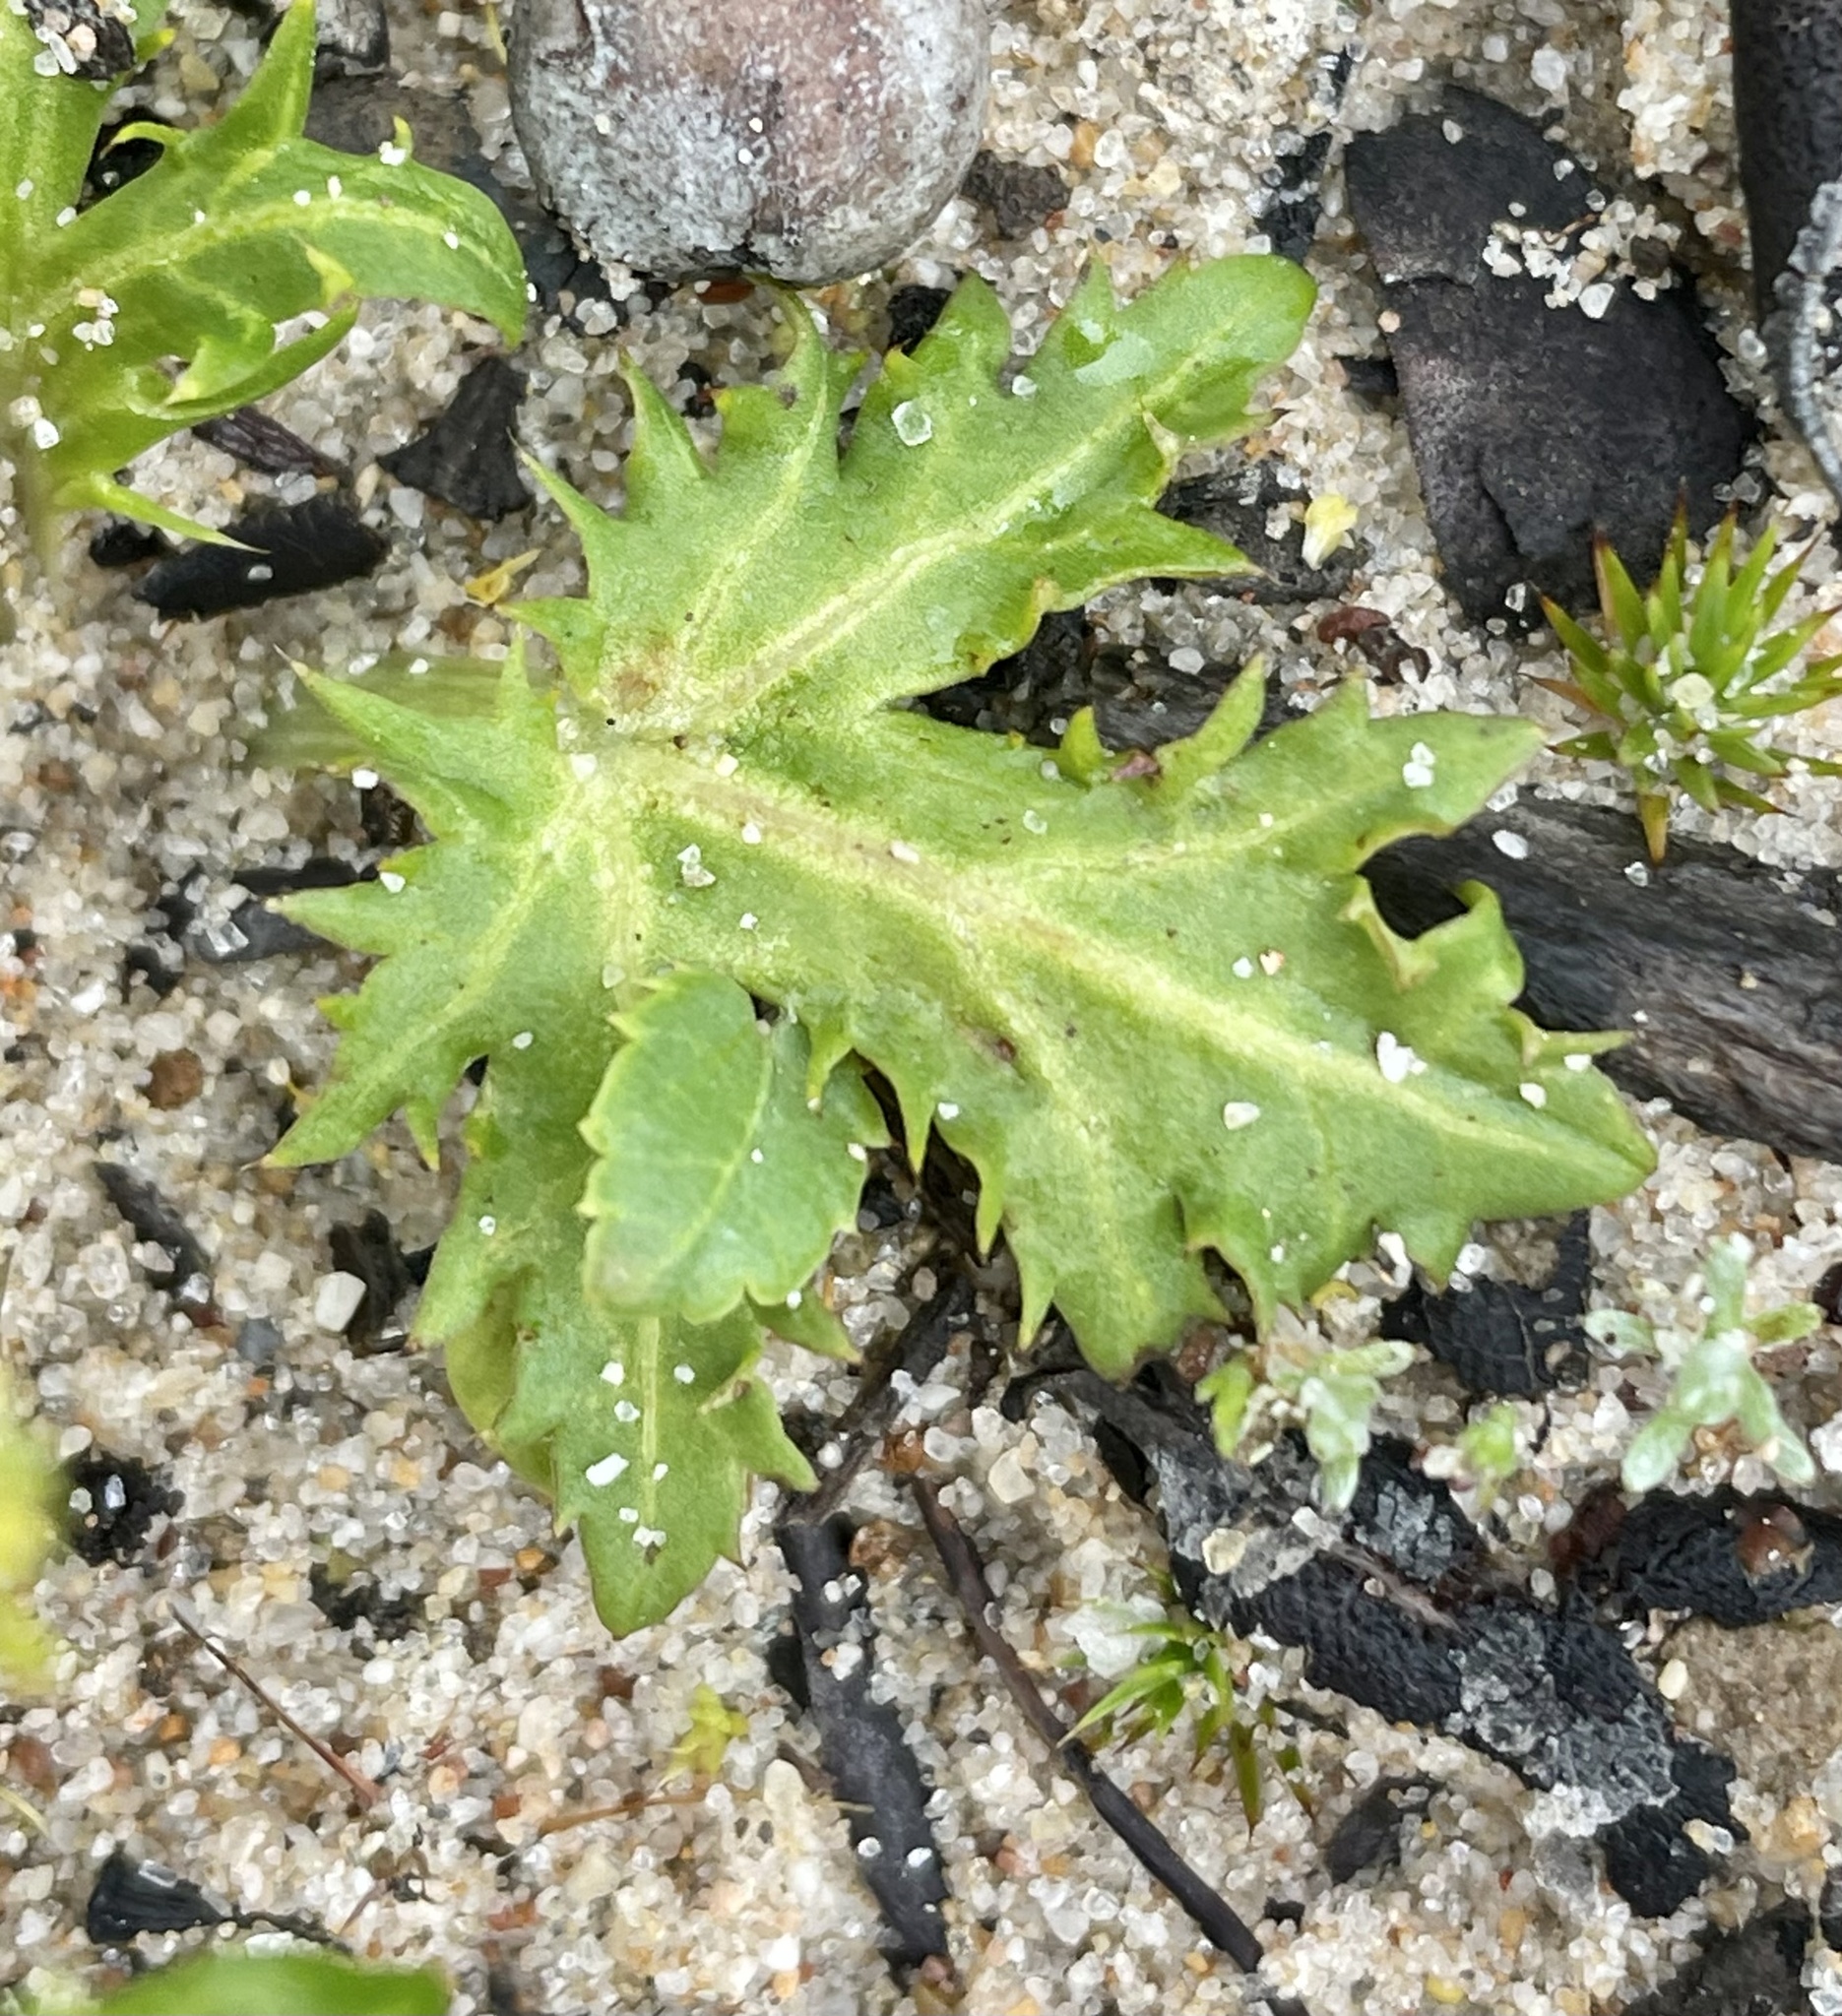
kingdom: Plantae
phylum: Tracheophyta
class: Magnoliopsida
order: Apiales
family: Apiaceae
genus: Sanicula
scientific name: Sanicula laciniata
